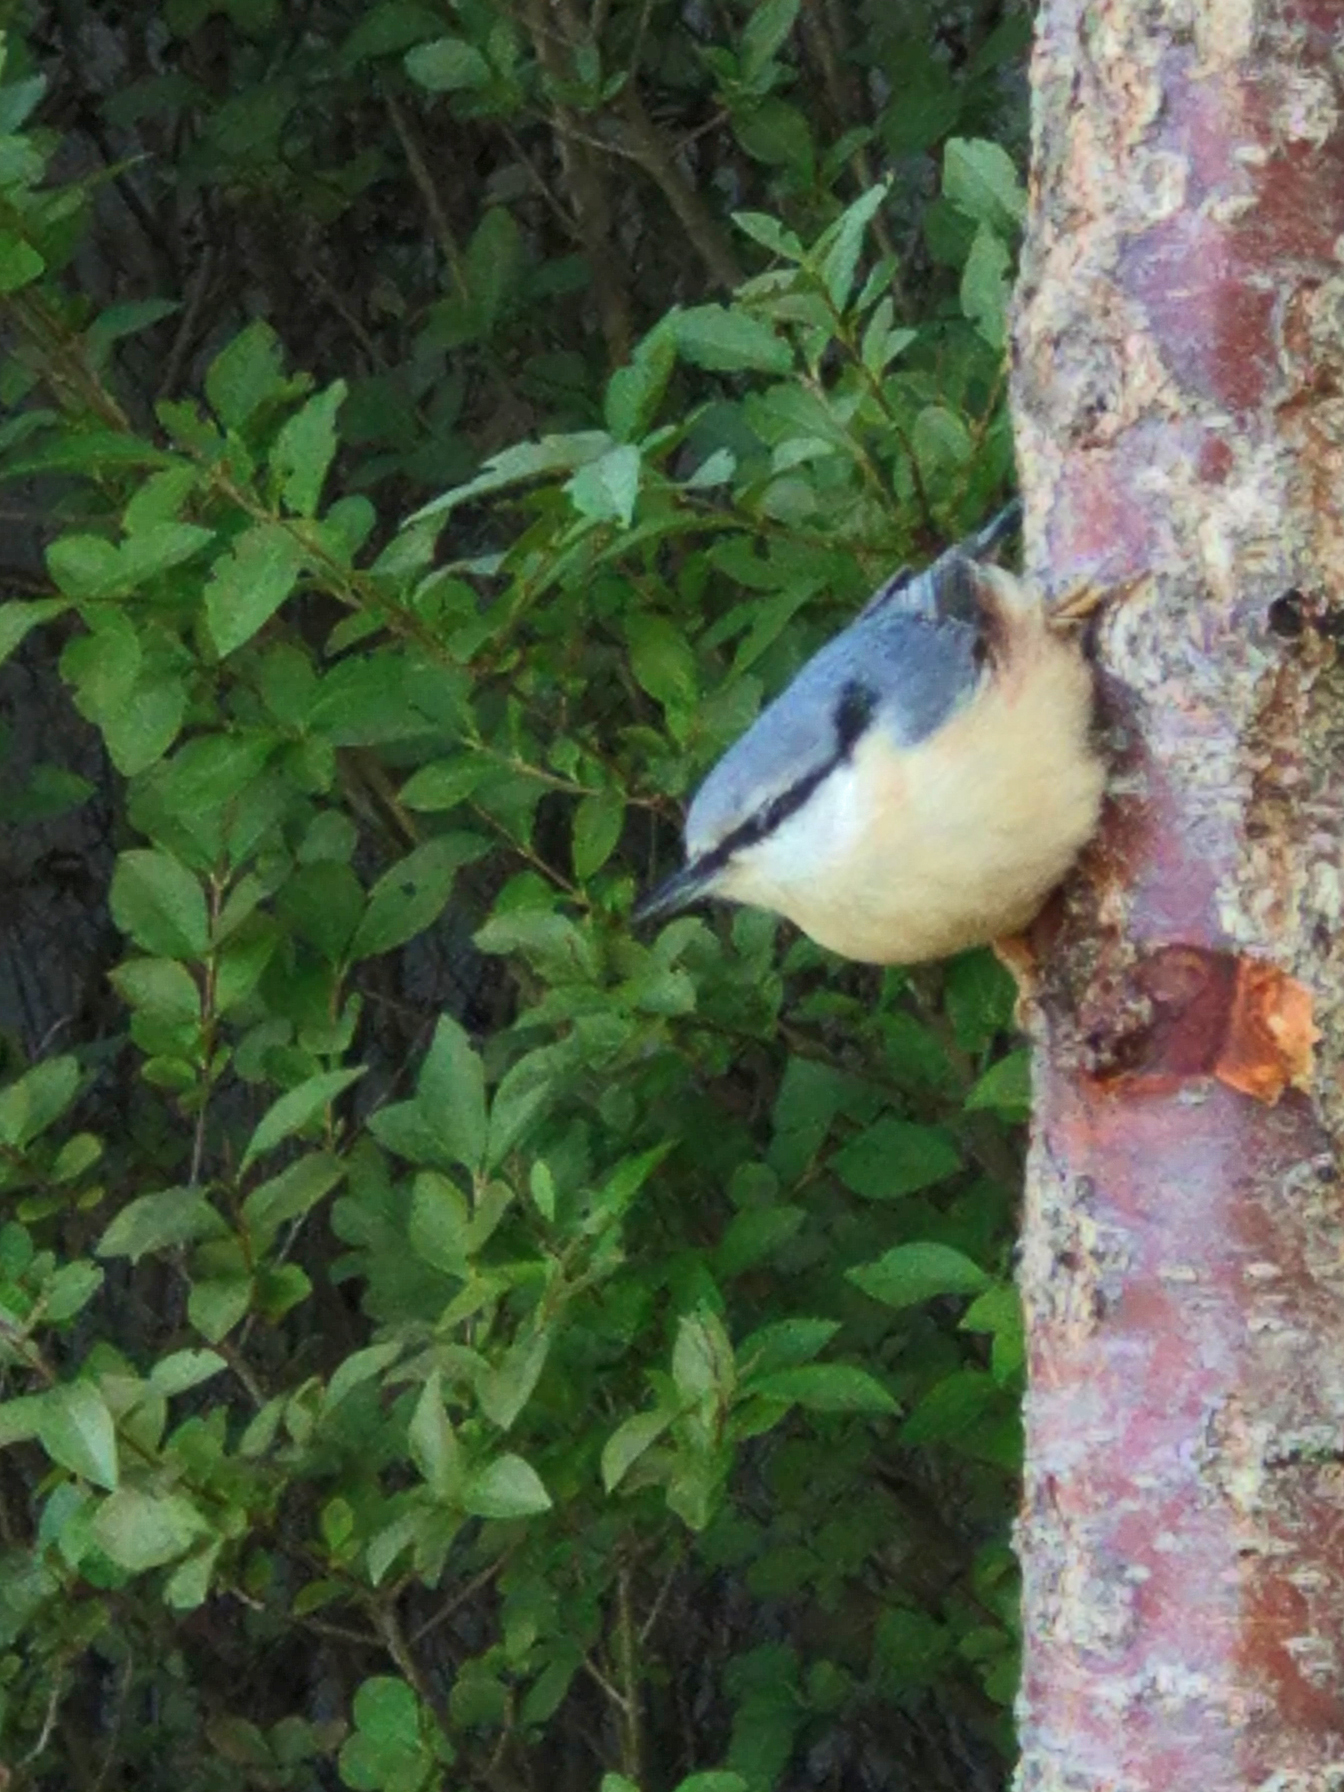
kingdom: Animalia
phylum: Chordata
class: Aves
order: Passeriformes
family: Sittidae
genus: Sitta
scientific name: Sitta europaea
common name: Eurasian nuthatch
